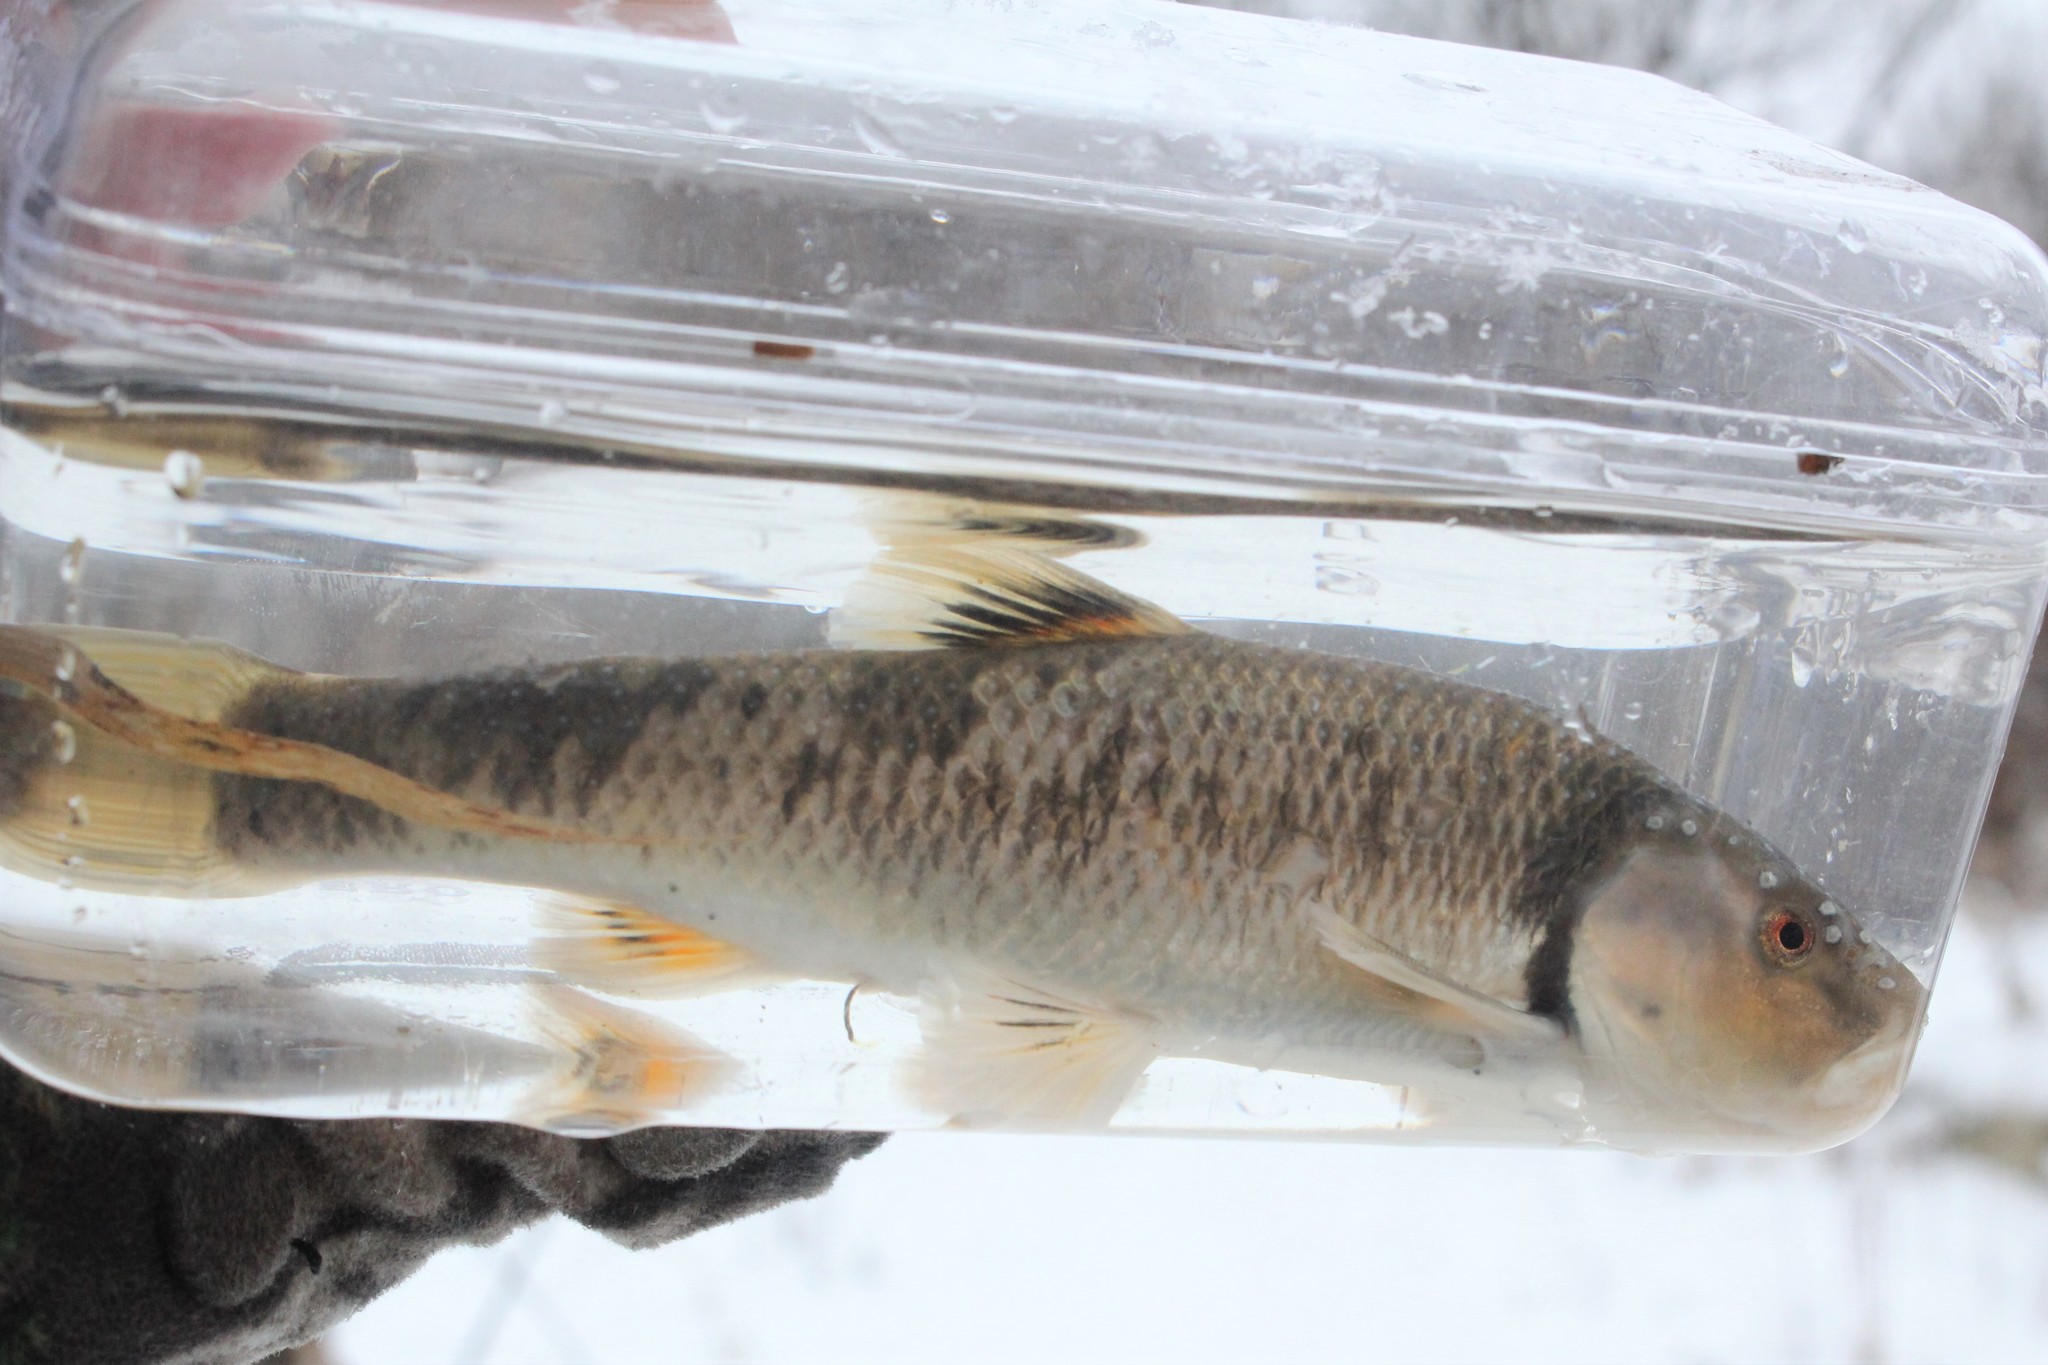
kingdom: Animalia
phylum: Chordata
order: Cypriniformes
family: Cyprinidae
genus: Campostoma
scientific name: Campostoma anomalum
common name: Central stoneroller
